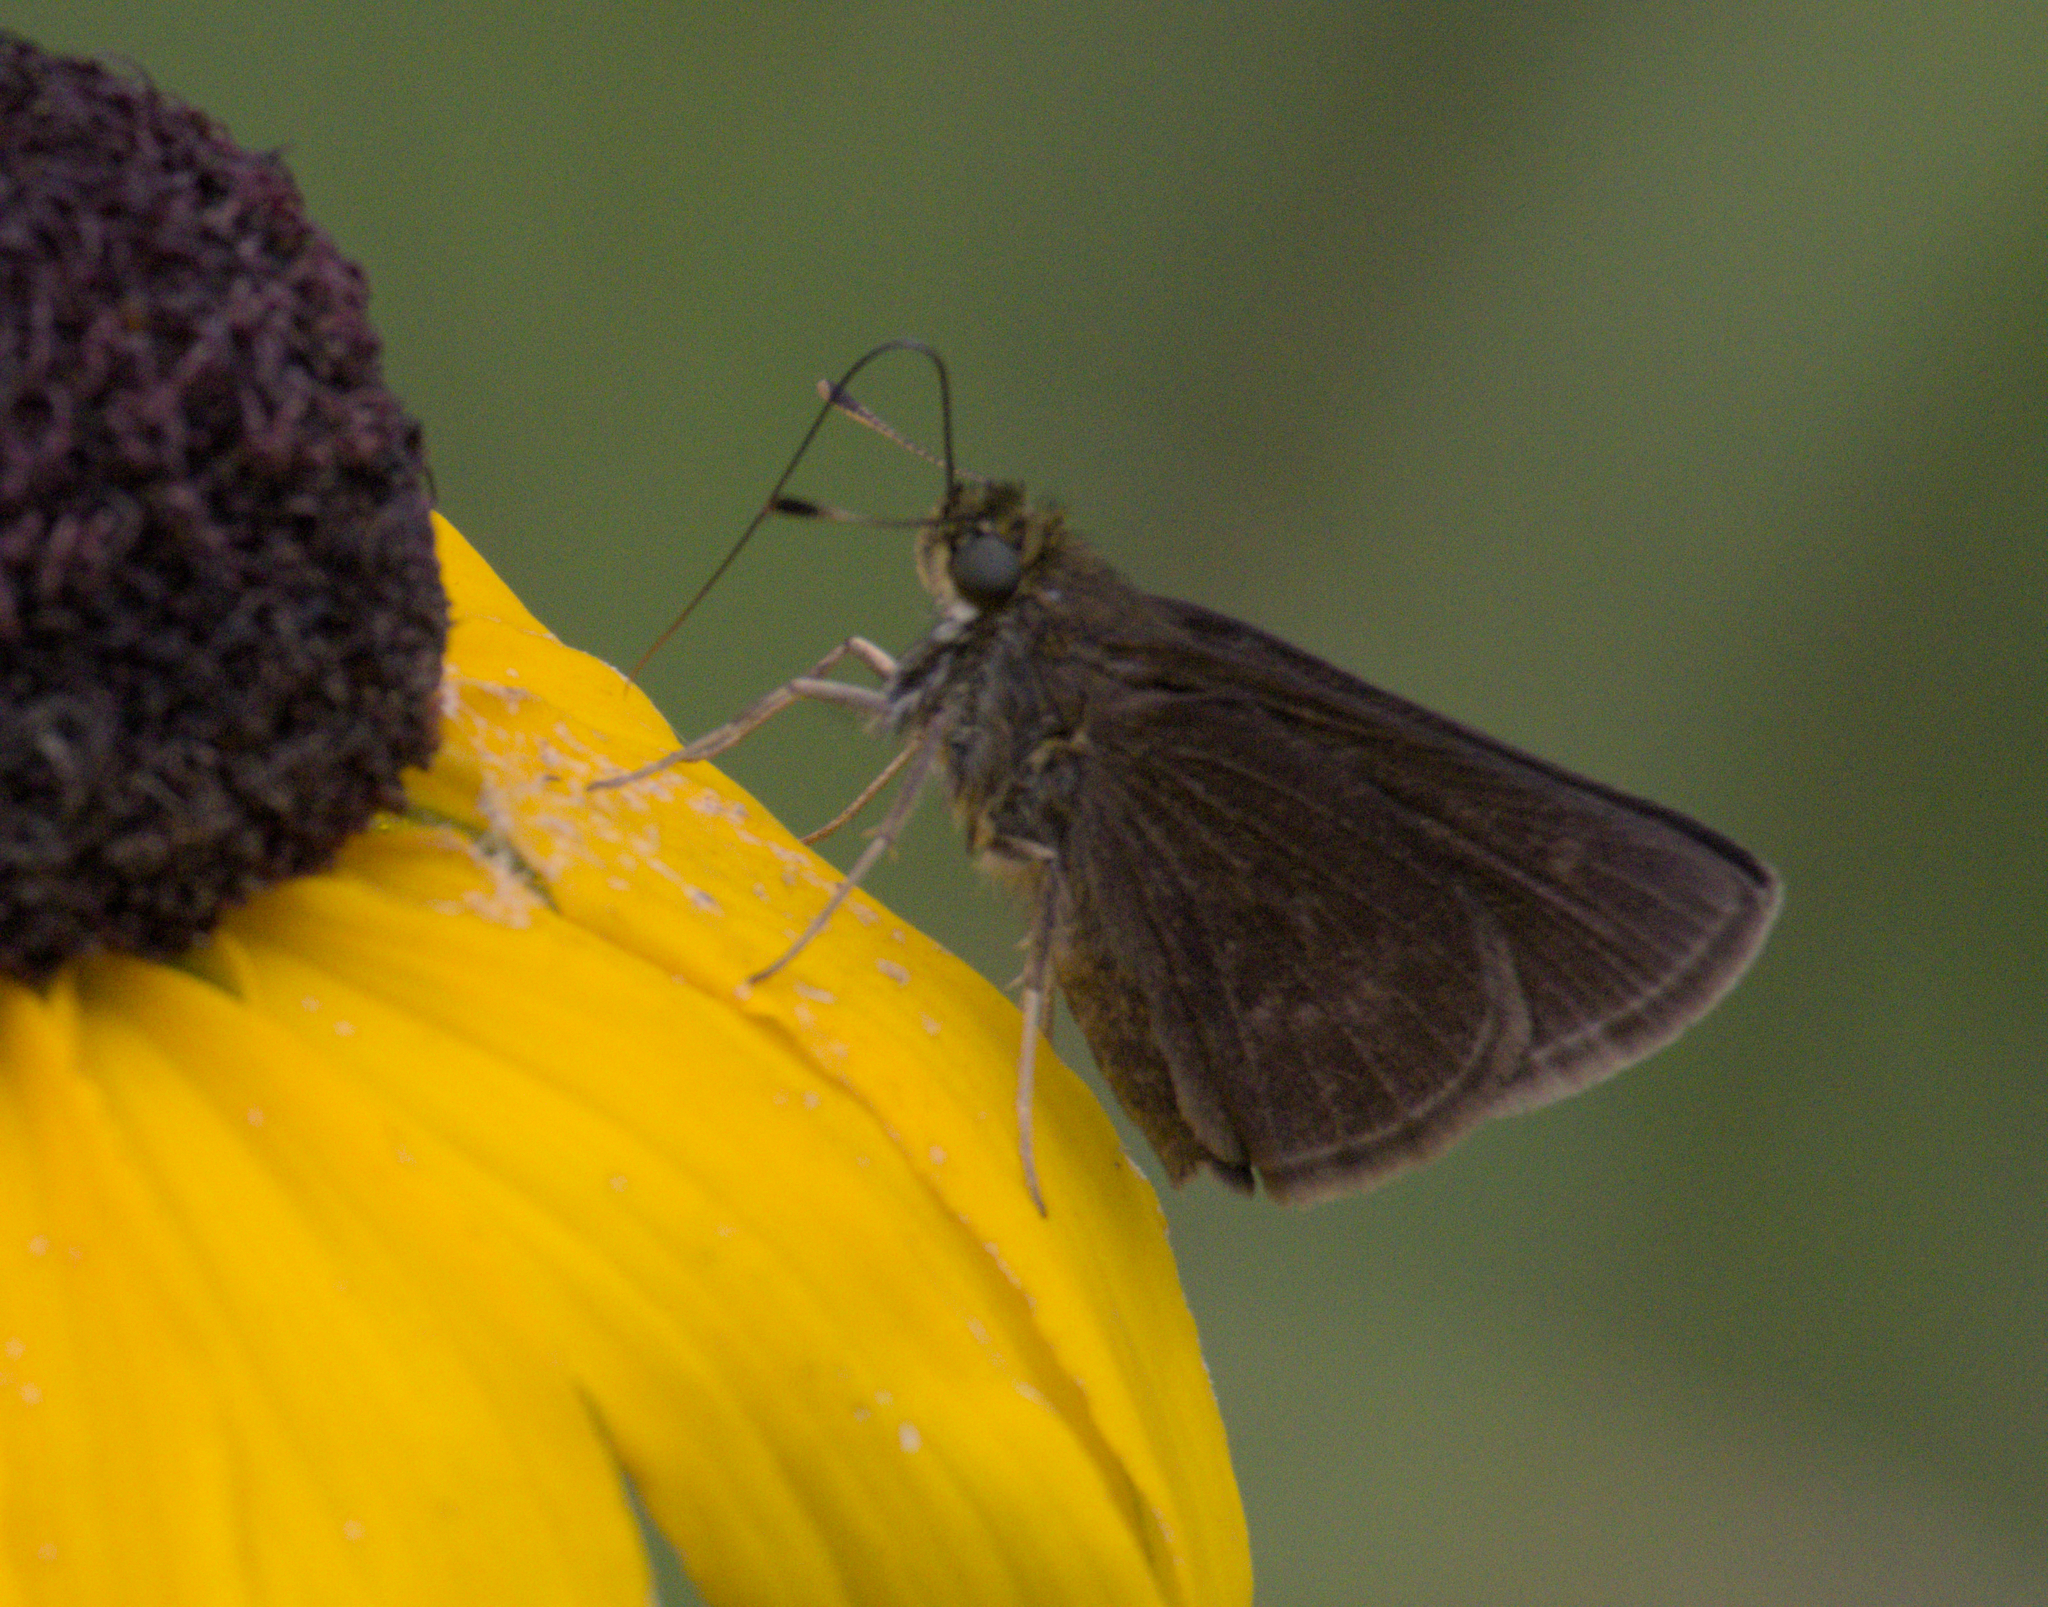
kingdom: Animalia
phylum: Arthropoda
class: Insecta
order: Lepidoptera
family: Hesperiidae
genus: Euphyes
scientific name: Euphyes vestris
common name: Dun skipper
